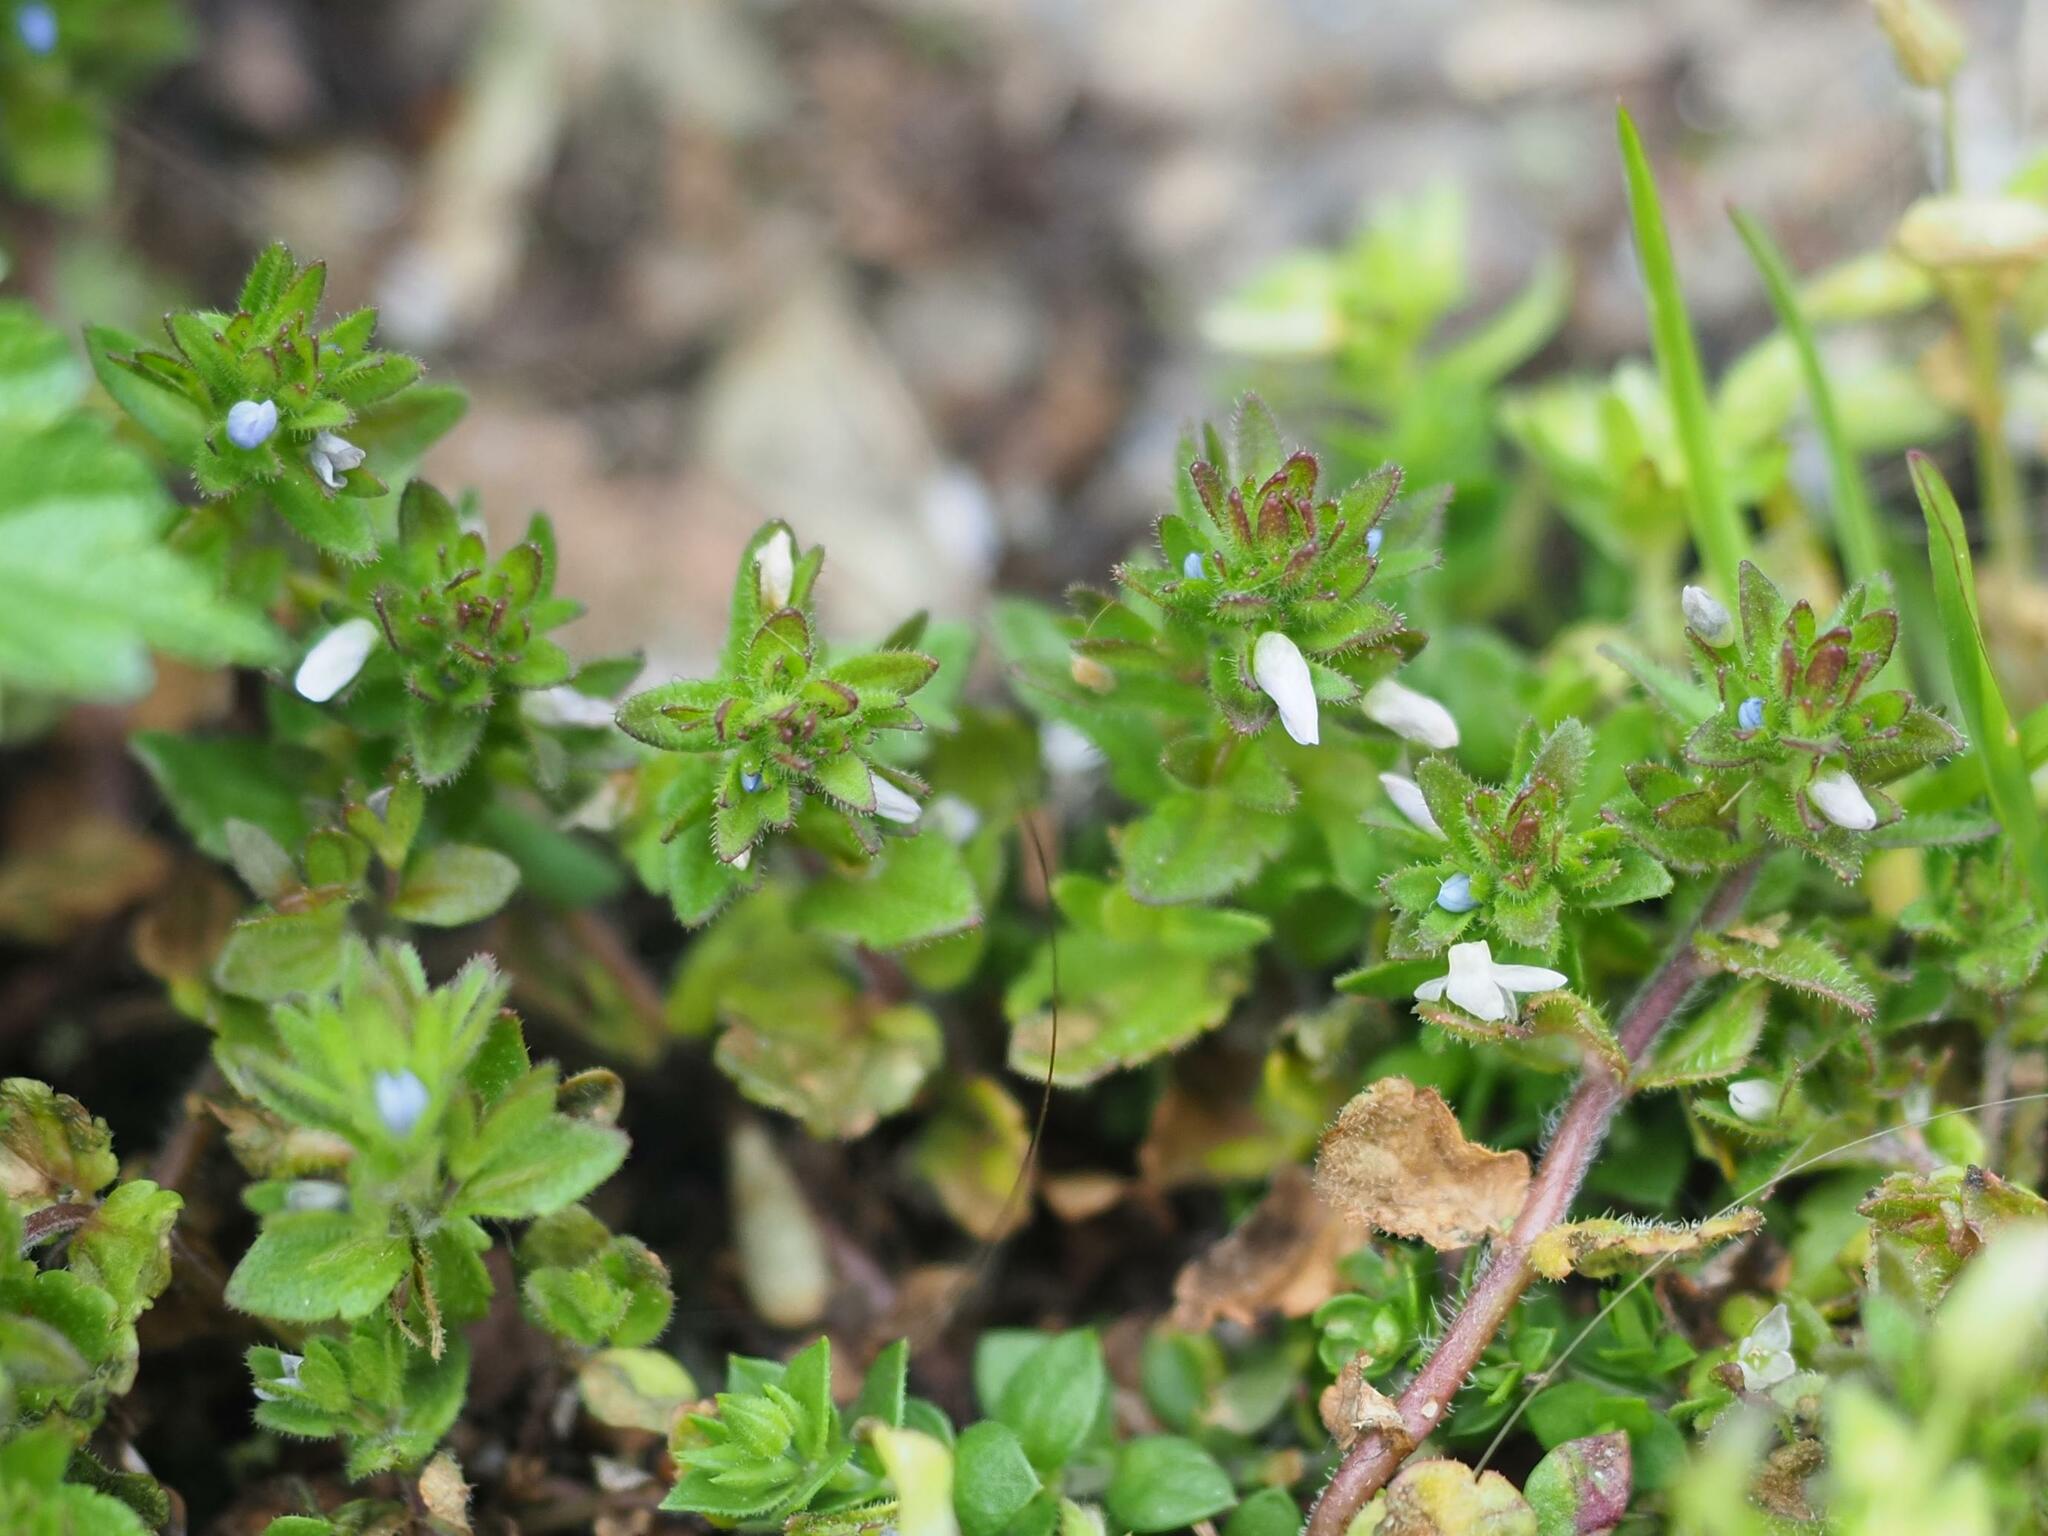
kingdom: Plantae
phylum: Tracheophyta
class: Magnoliopsida
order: Lamiales
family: Plantaginaceae
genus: Veronica
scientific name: Veronica arvensis
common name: Corn speedwell
